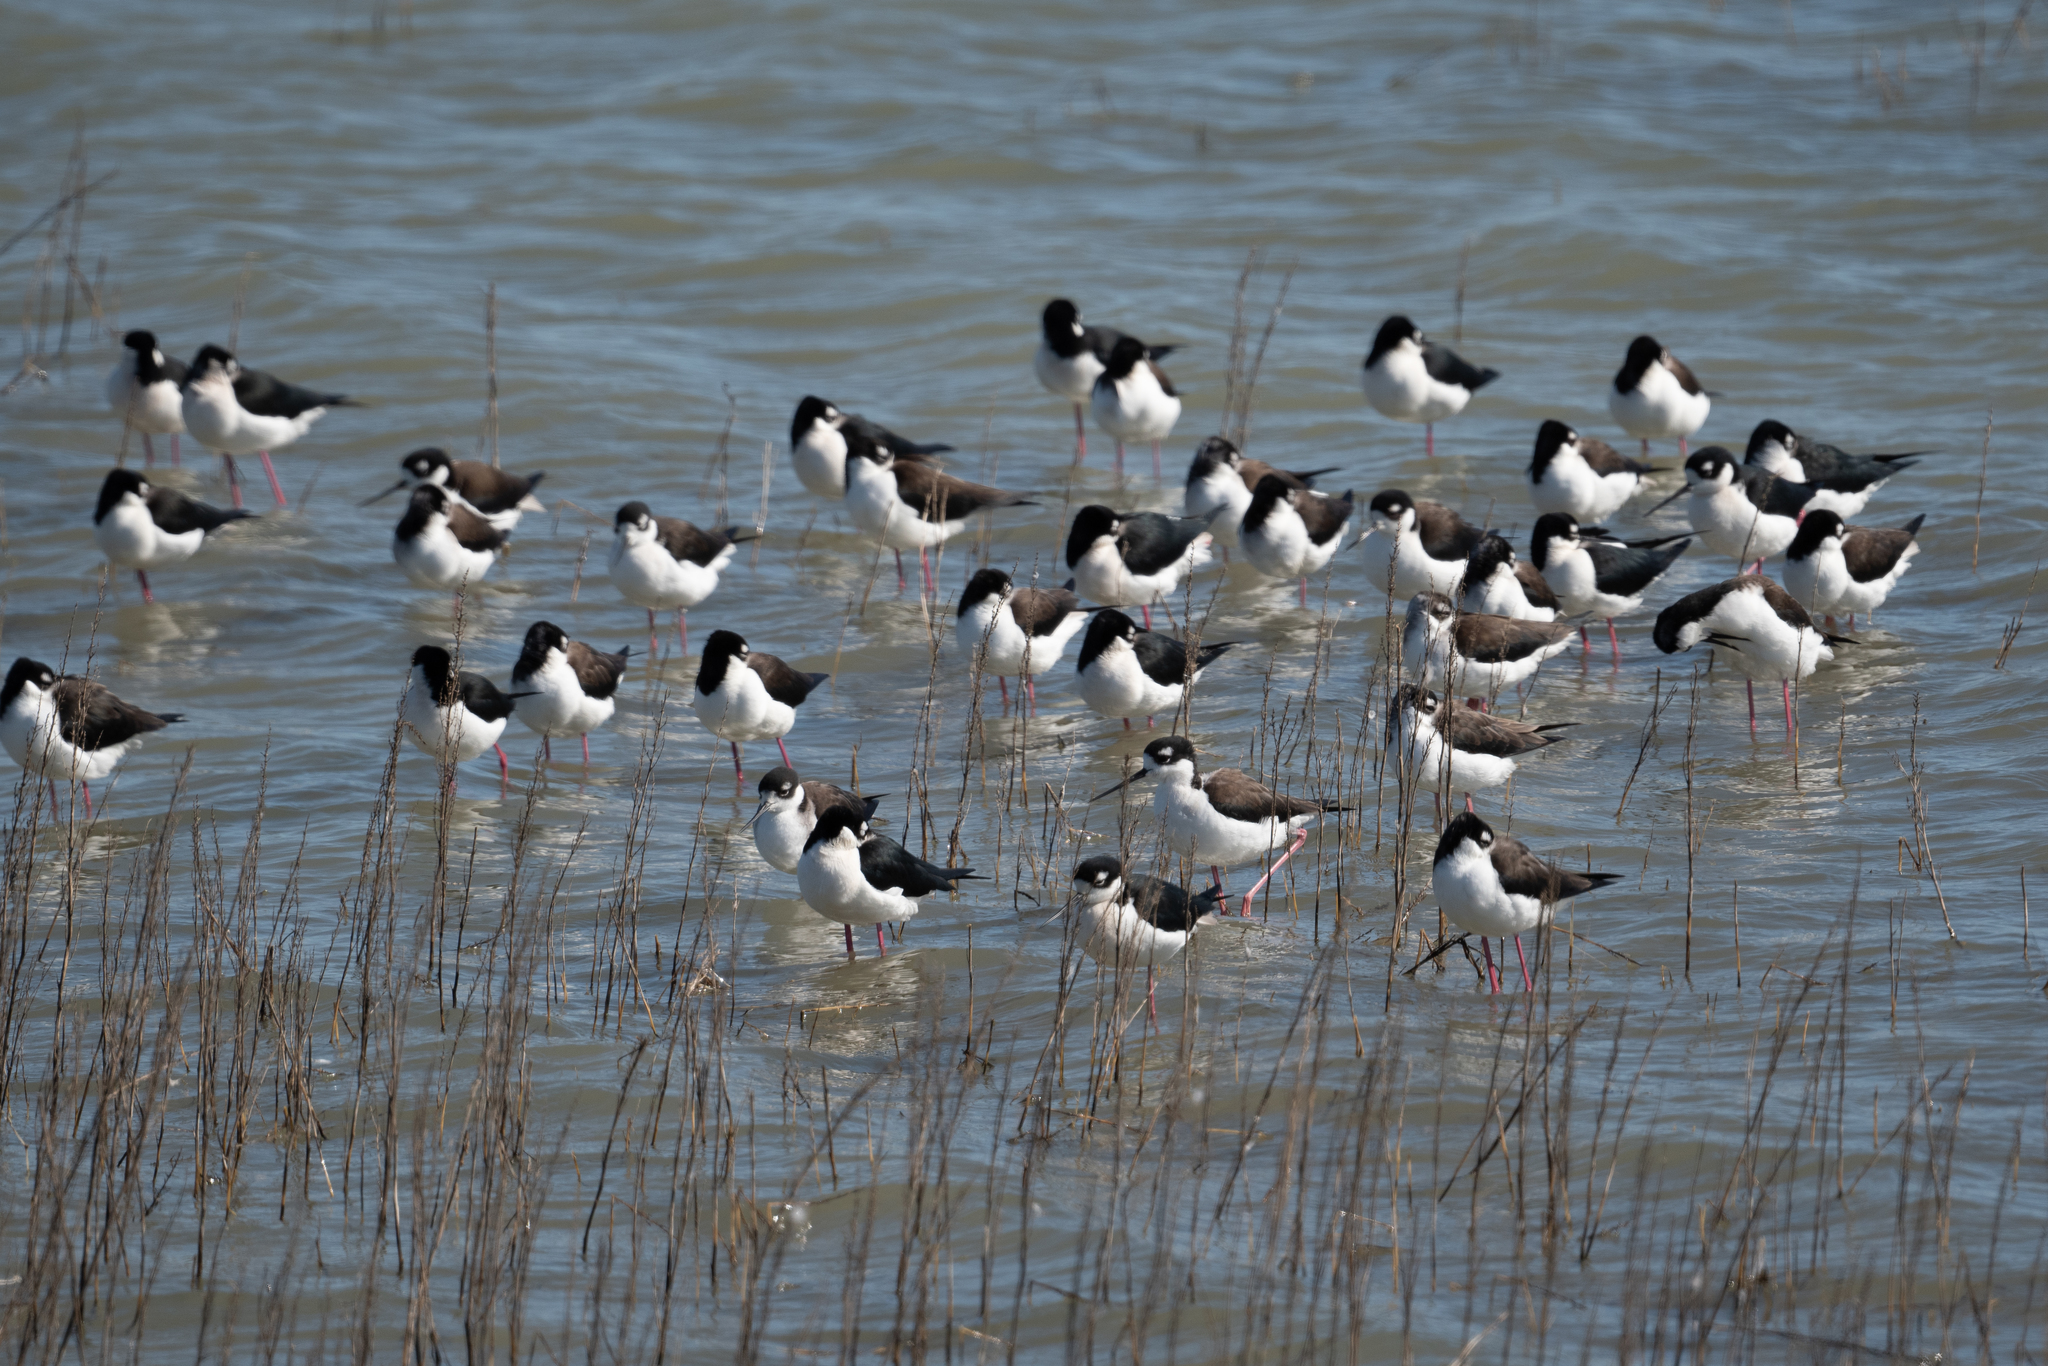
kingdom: Animalia
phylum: Chordata
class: Aves
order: Charadriiformes
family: Recurvirostridae
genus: Himantopus
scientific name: Himantopus mexicanus
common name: Black-necked stilt
